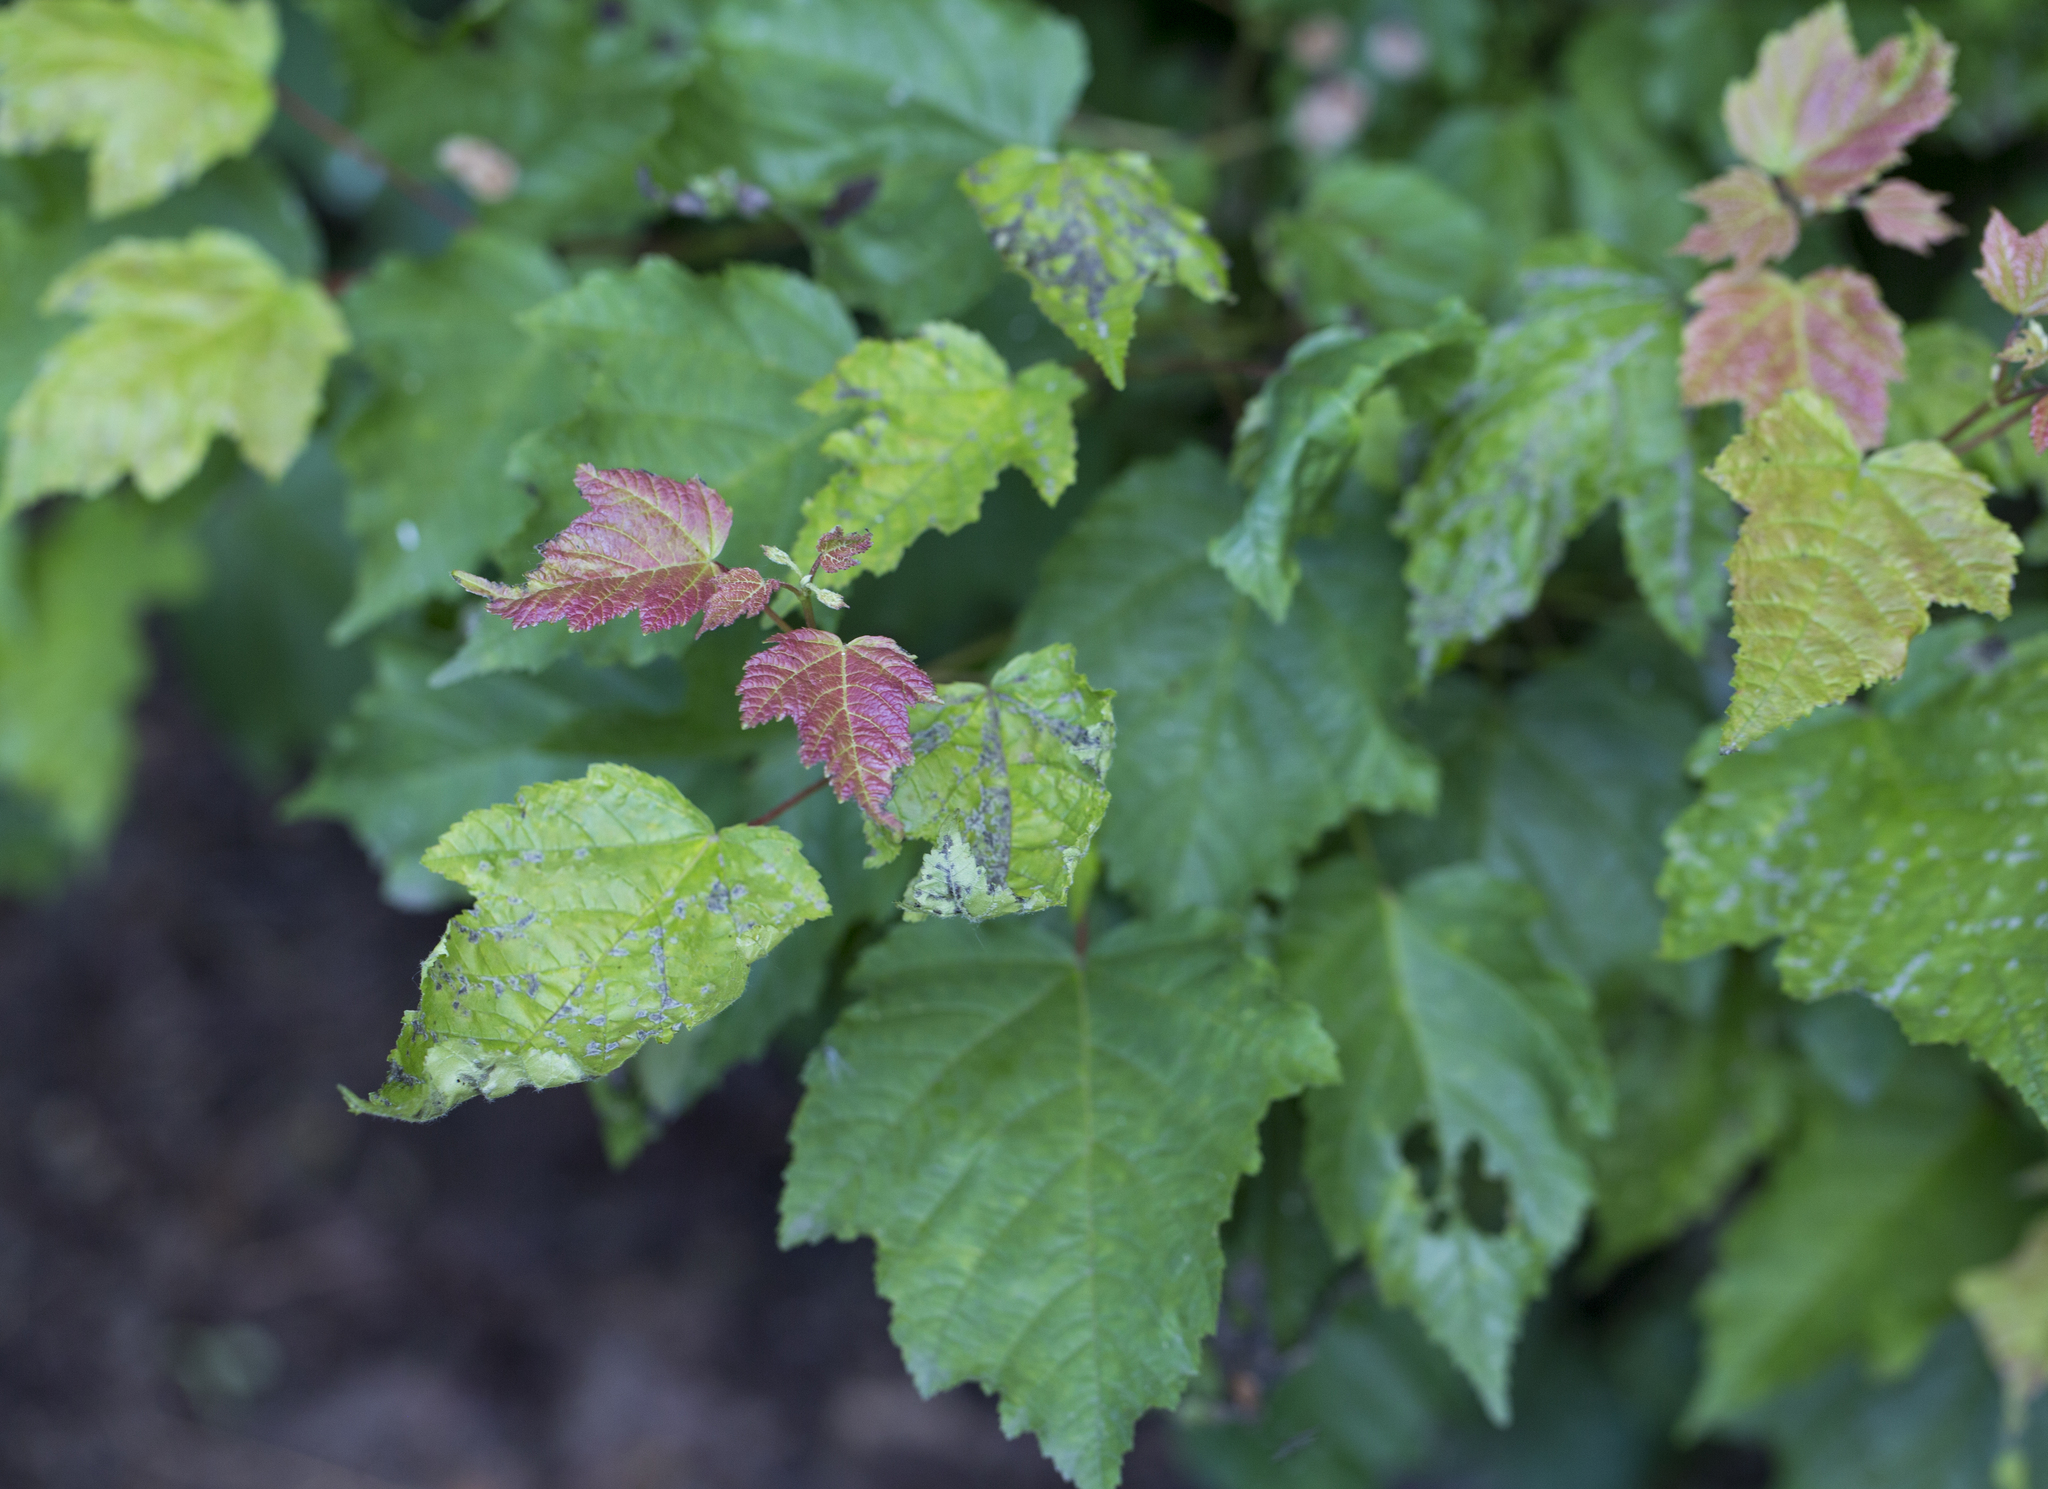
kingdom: Plantae
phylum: Tracheophyta
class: Magnoliopsida
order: Sapindales
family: Sapindaceae
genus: Acer
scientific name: Acer tataricum
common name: Tartar maple
